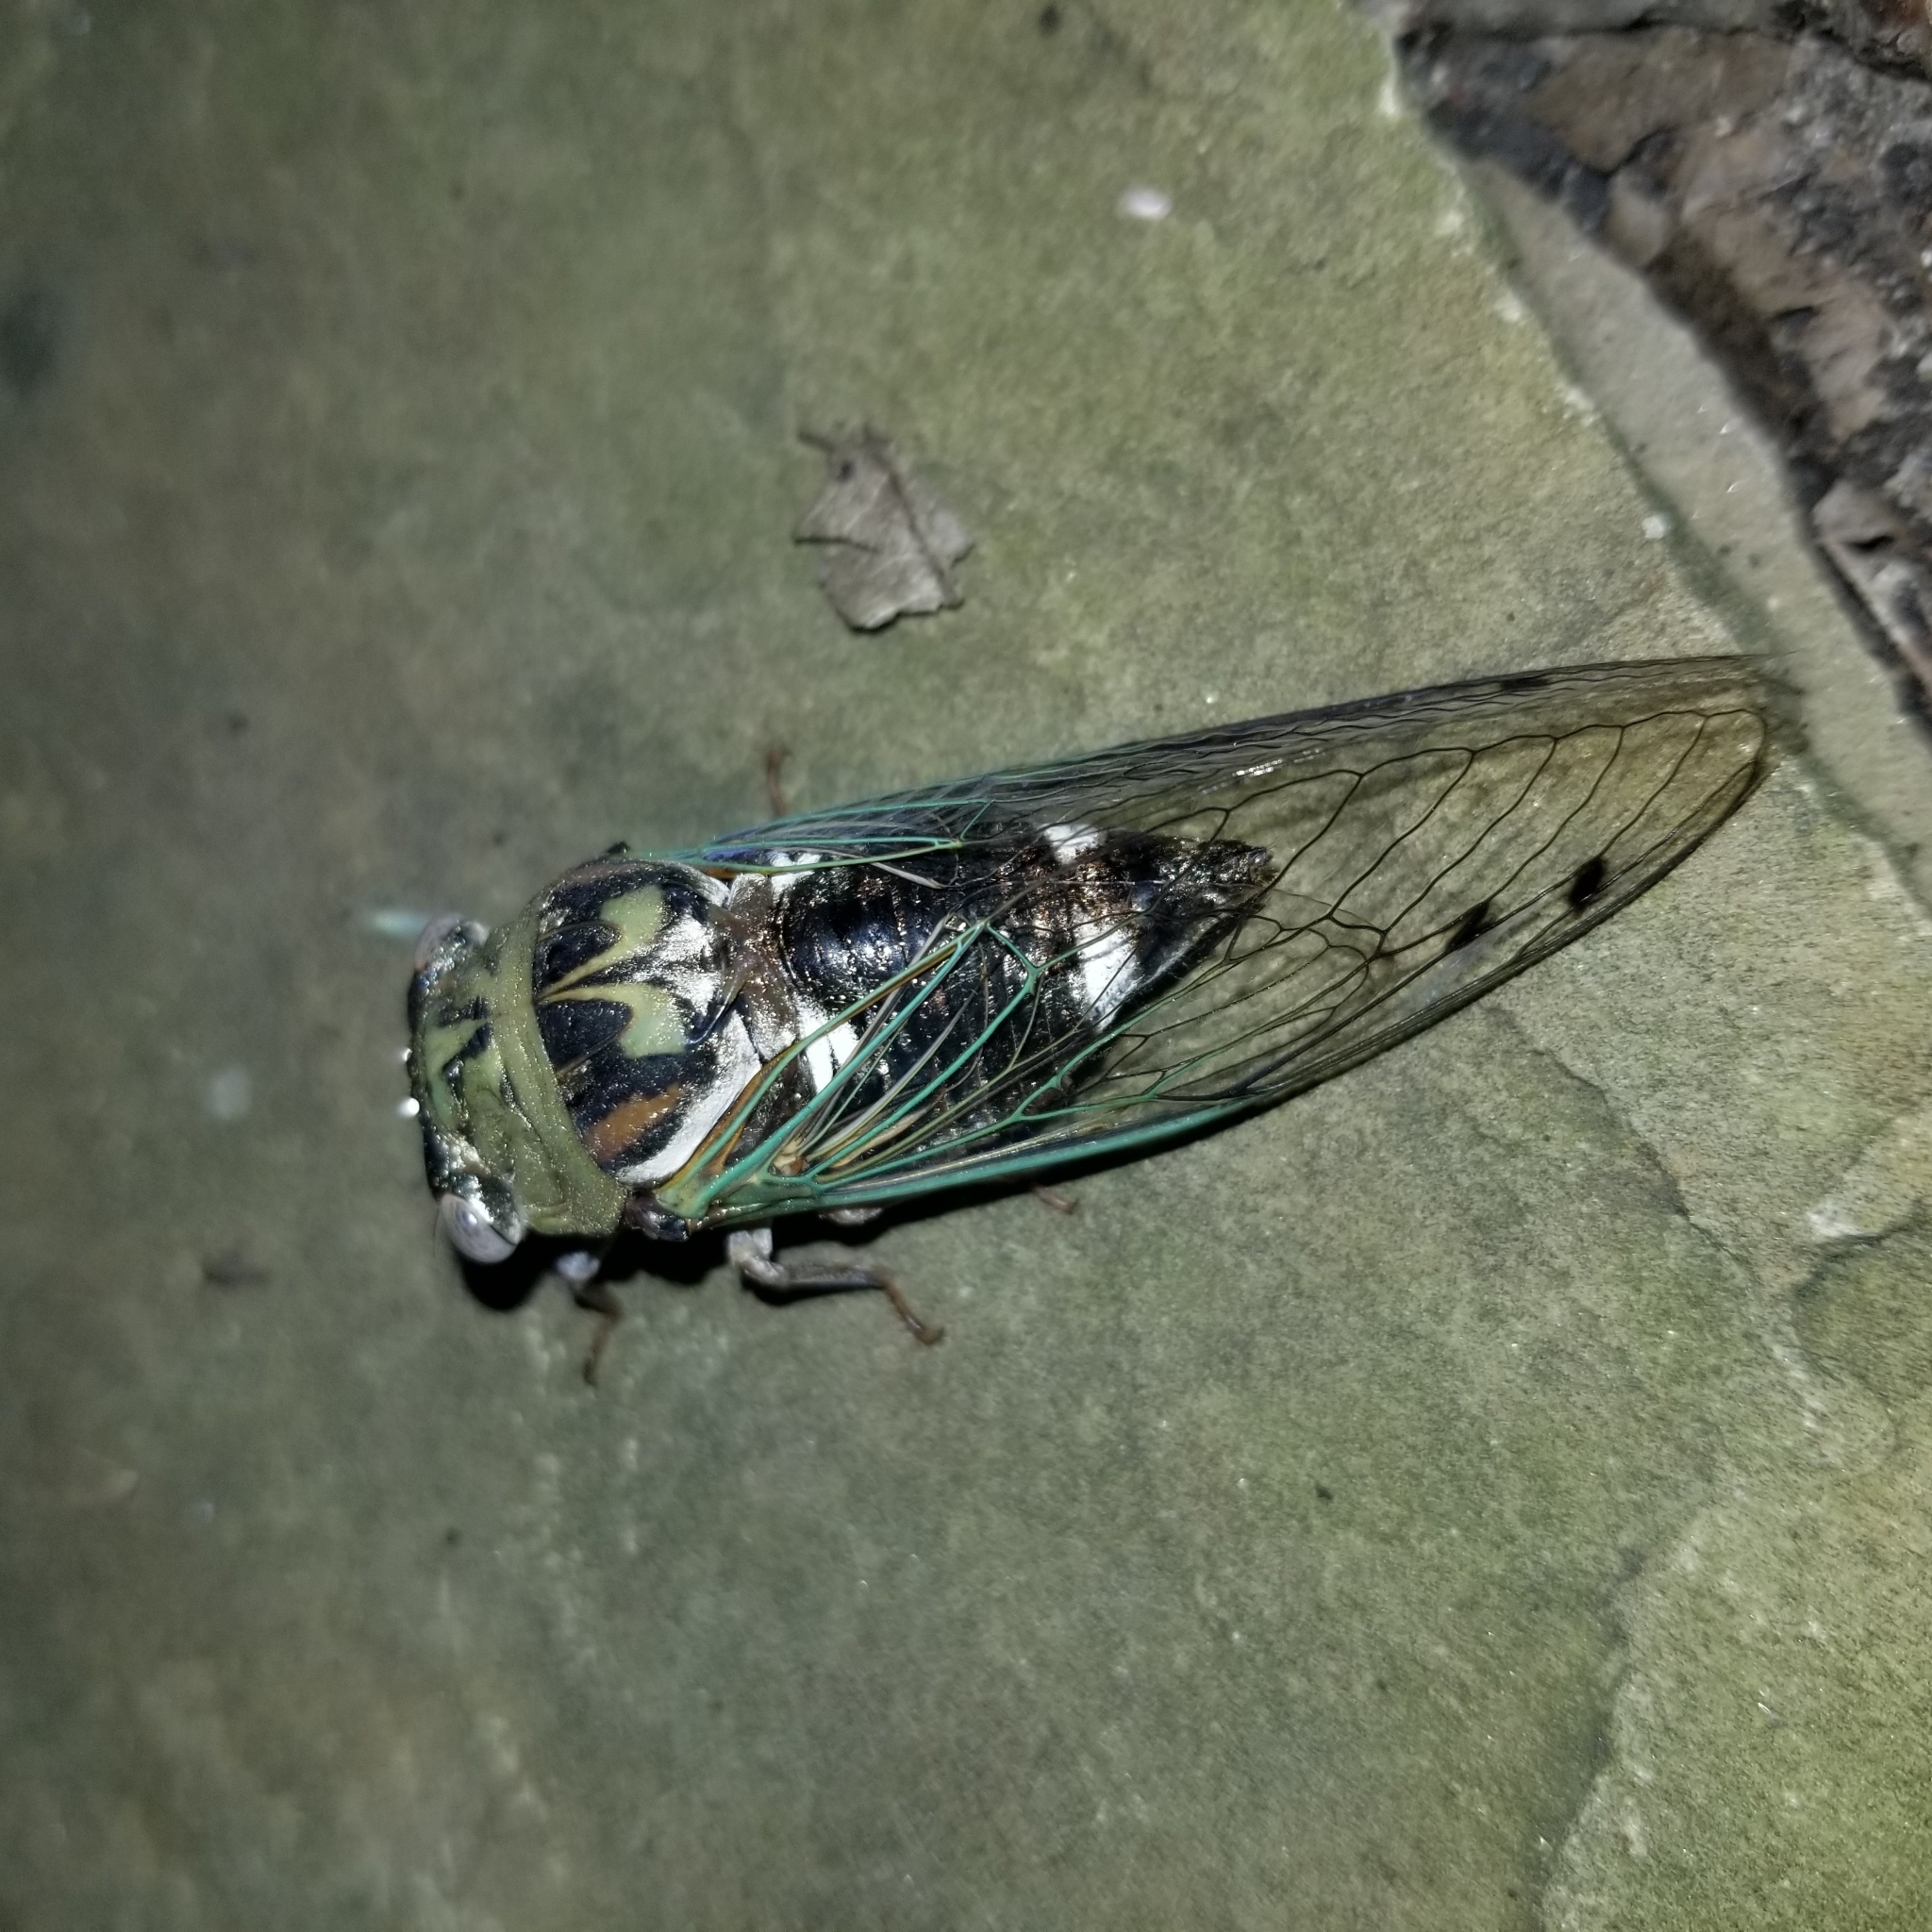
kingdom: Animalia
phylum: Arthropoda
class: Insecta
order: Hemiptera
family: Cicadidae
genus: Megatibicen
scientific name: Megatibicen resh
